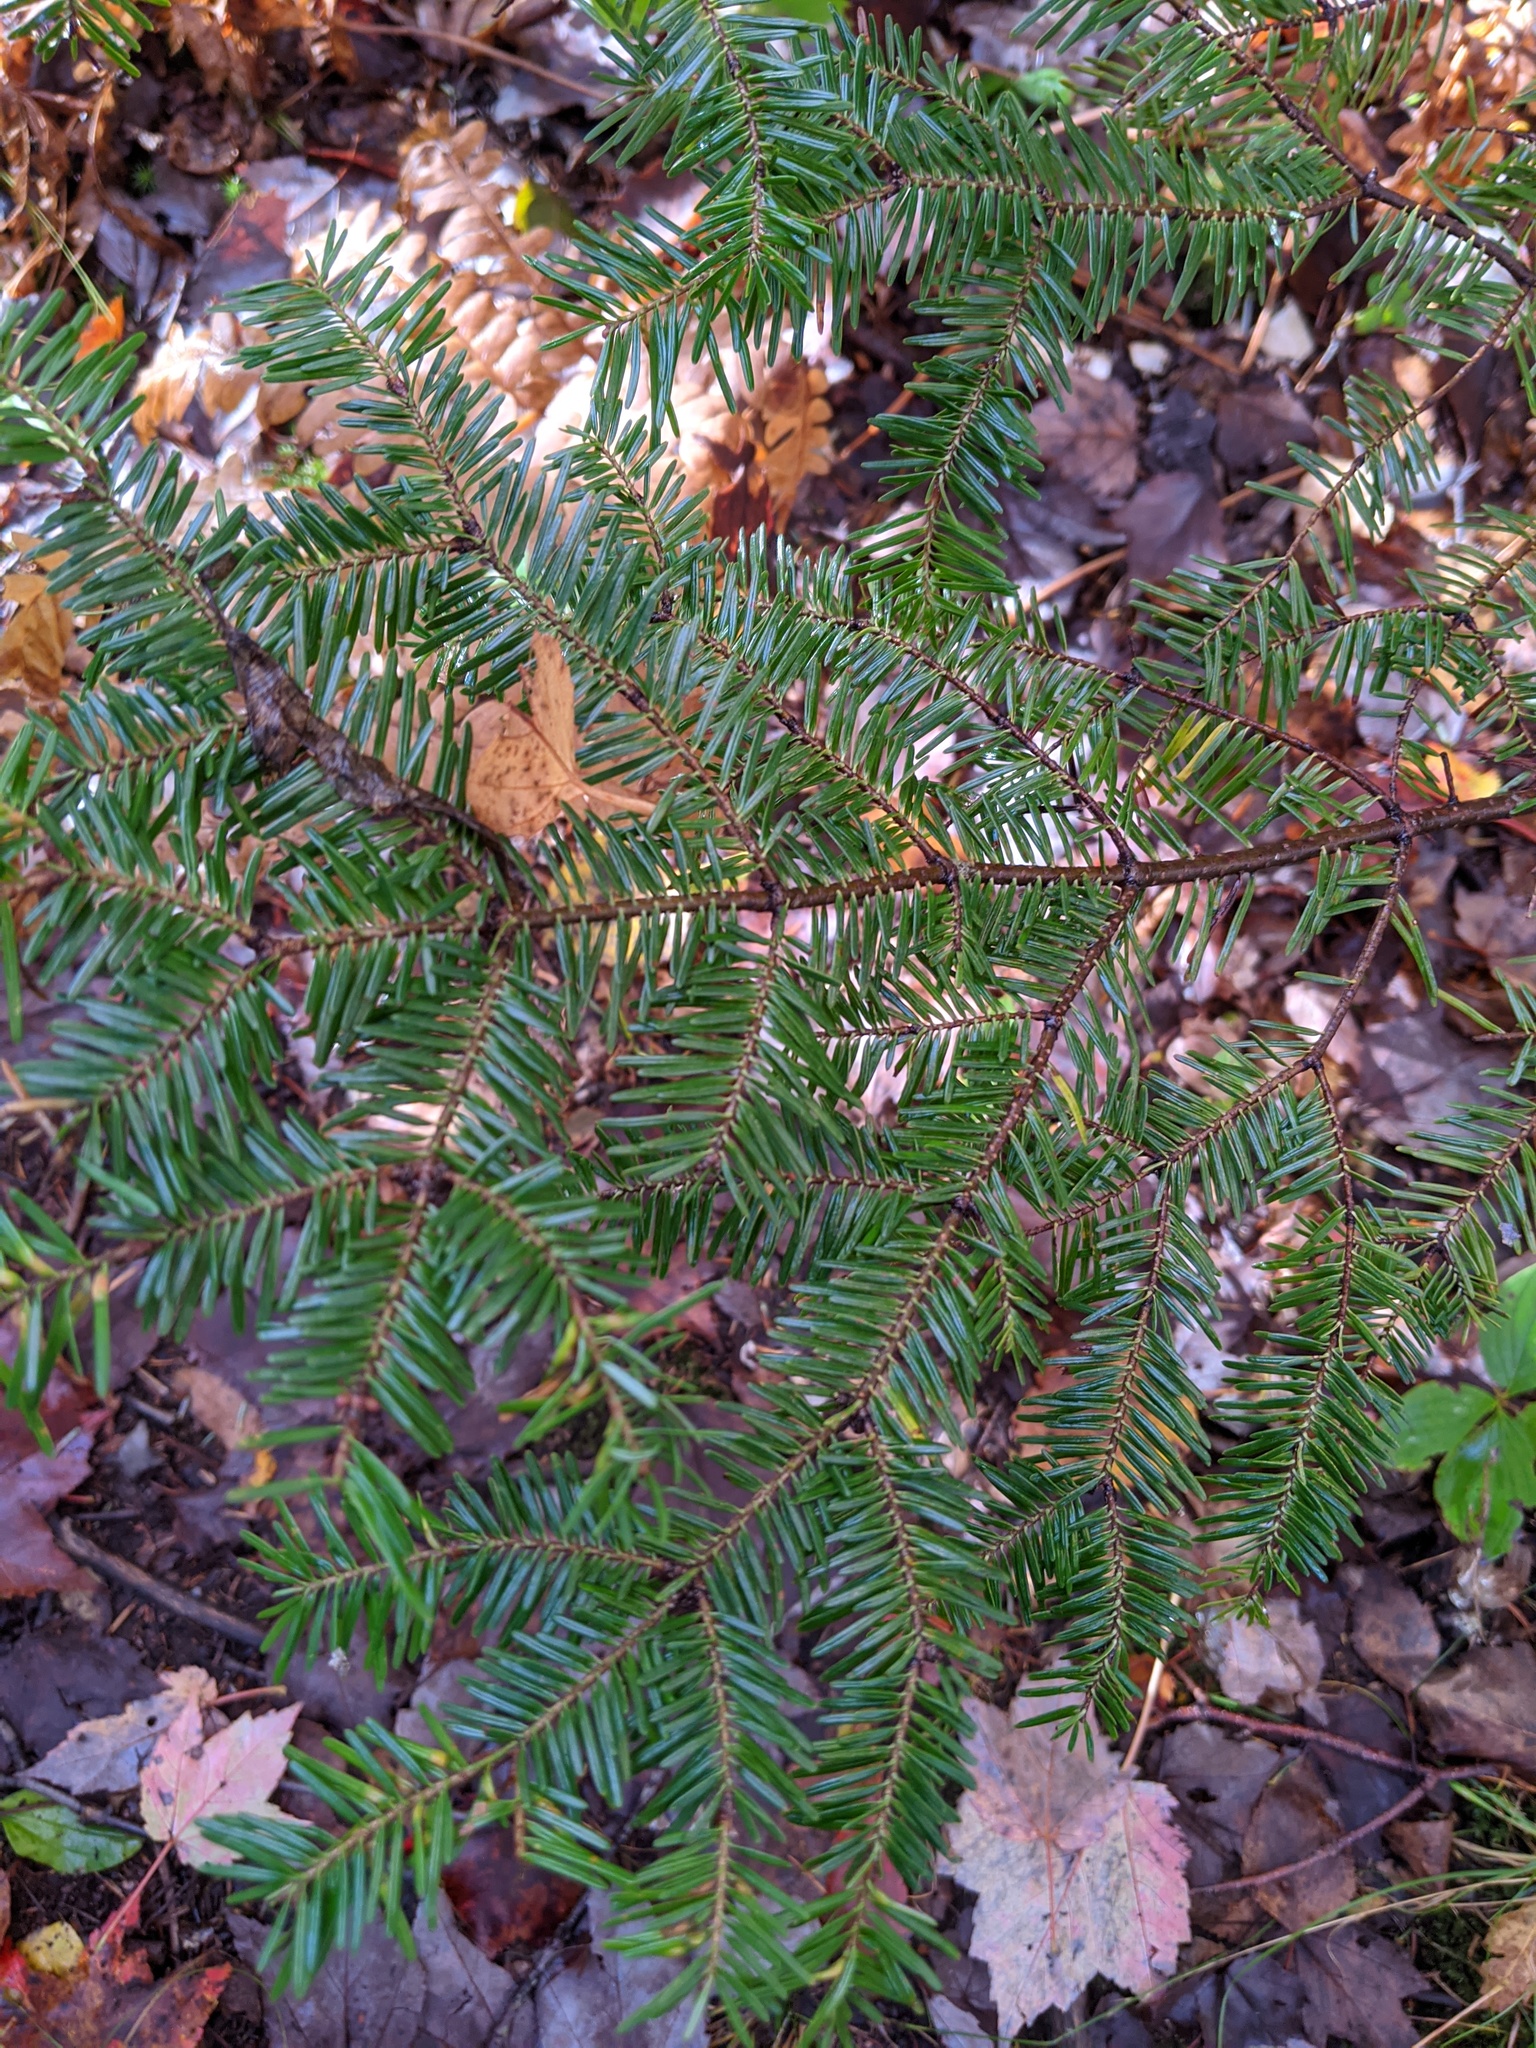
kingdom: Plantae
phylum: Tracheophyta
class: Pinopsida
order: Pinales
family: Pinaceae
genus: Abies
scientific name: Abies balsamea
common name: Balsam fir
